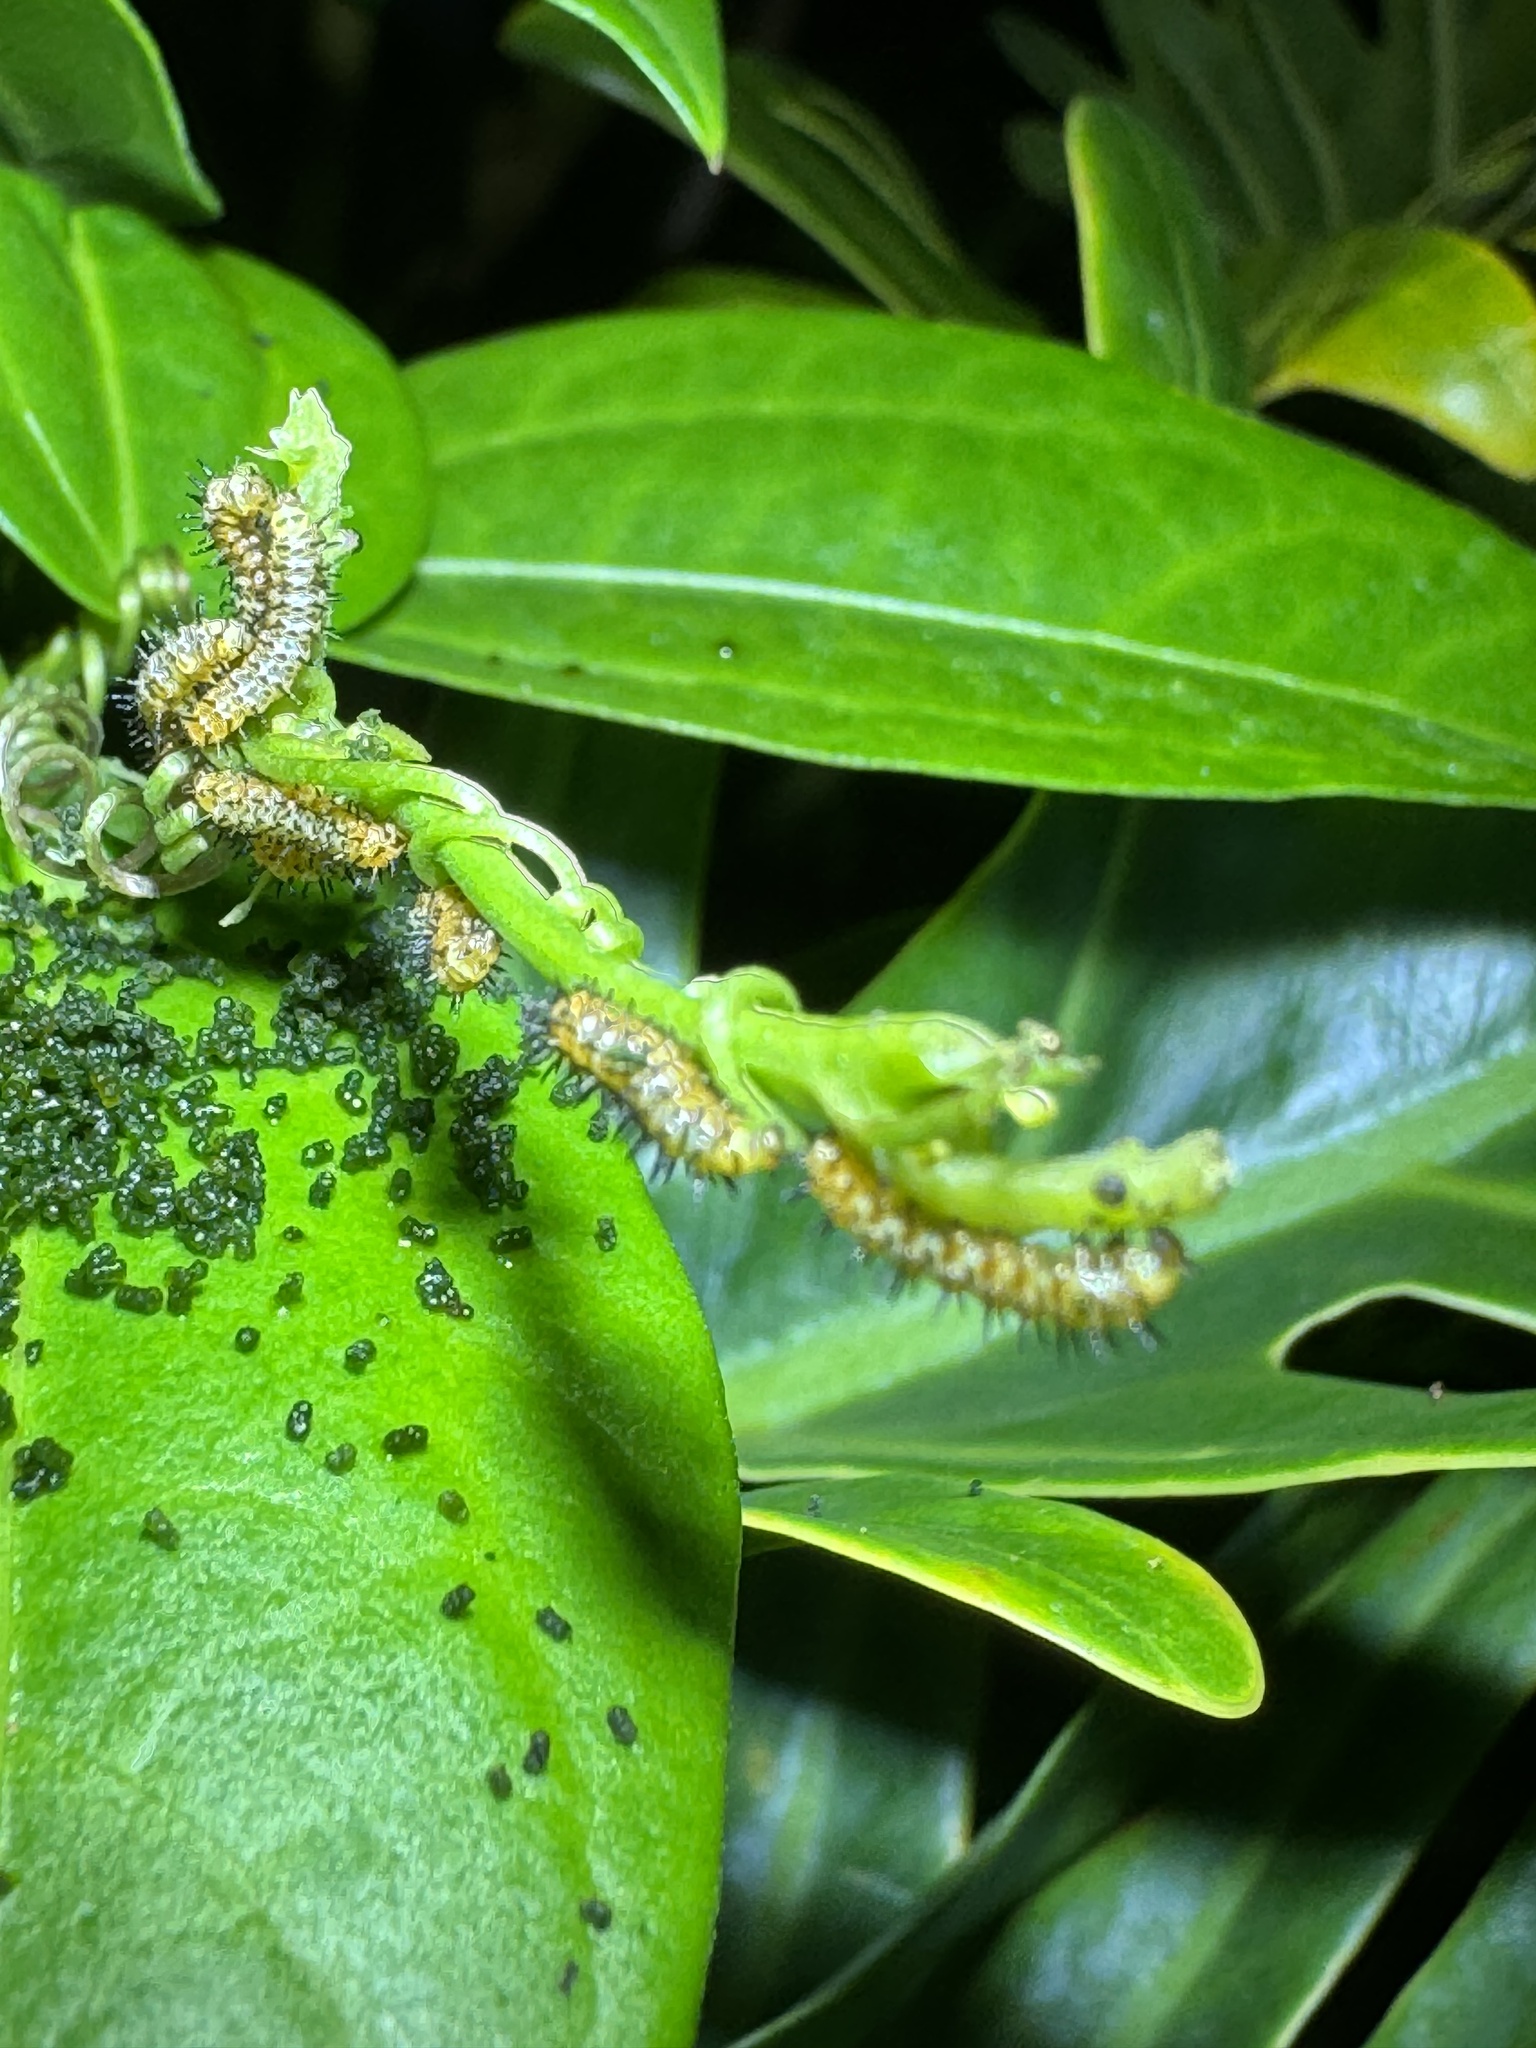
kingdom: Animalia
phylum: Arthropoda
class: Insecta
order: Lepidoptera
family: Nymphalidae
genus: Heliconius
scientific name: Heliconius charithonia
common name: Zebra long wing
